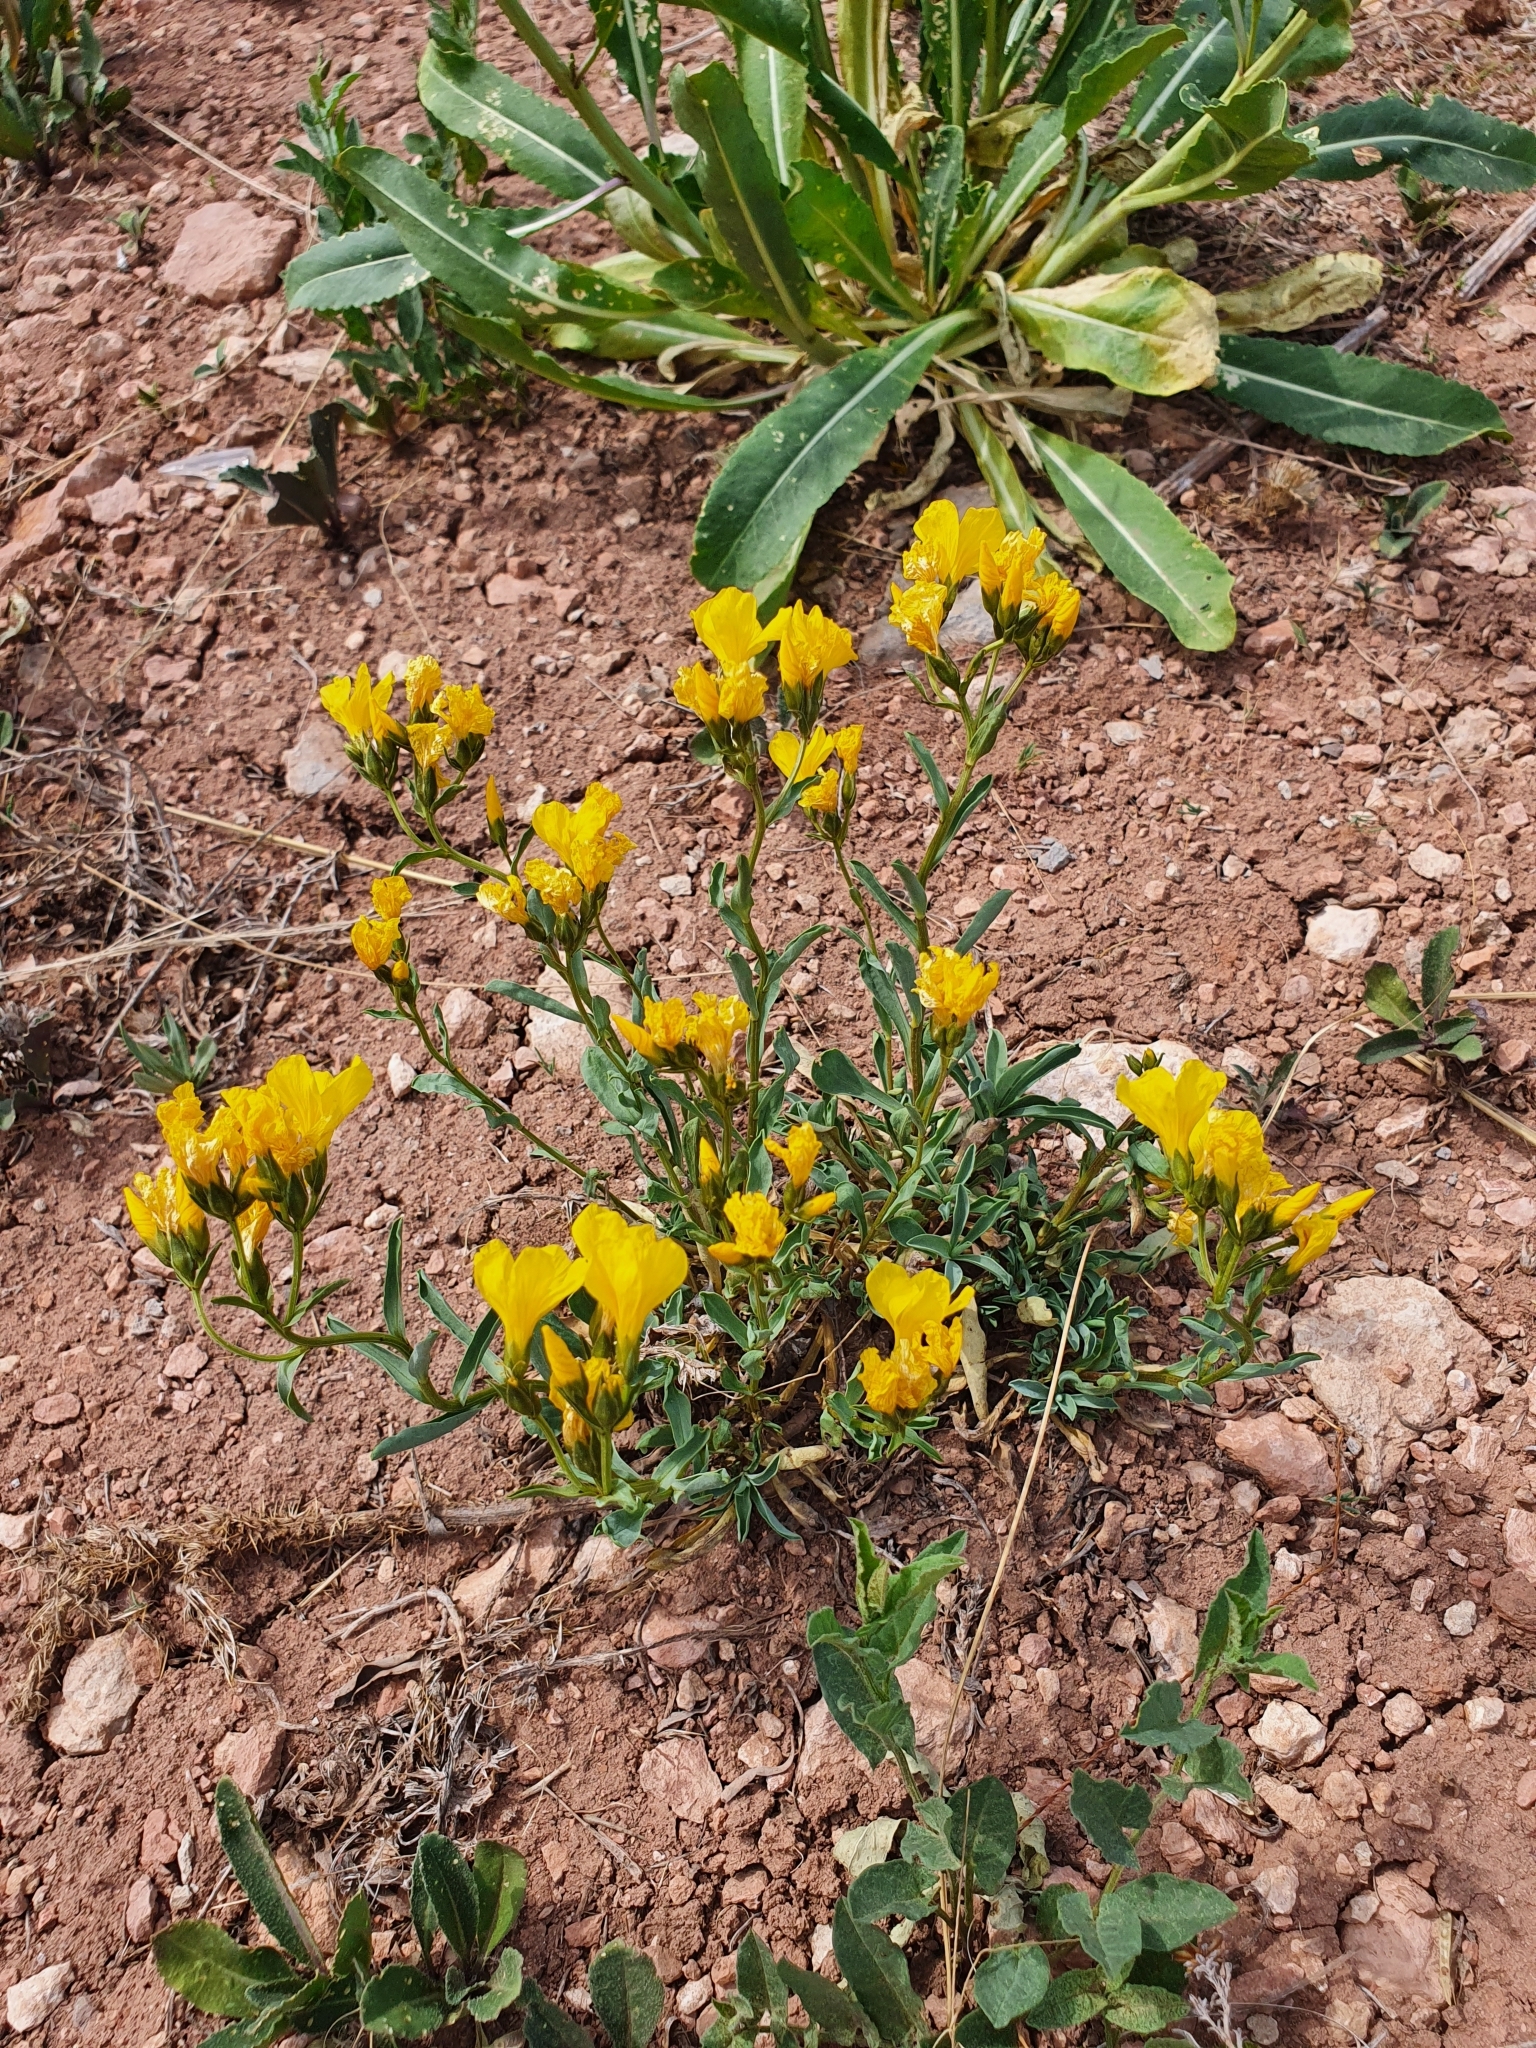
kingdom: Plantae
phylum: Tracheophyta
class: Magnoliopsida
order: Malpighiales
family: Linaceae
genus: Linum
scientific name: Linum ucranicum
